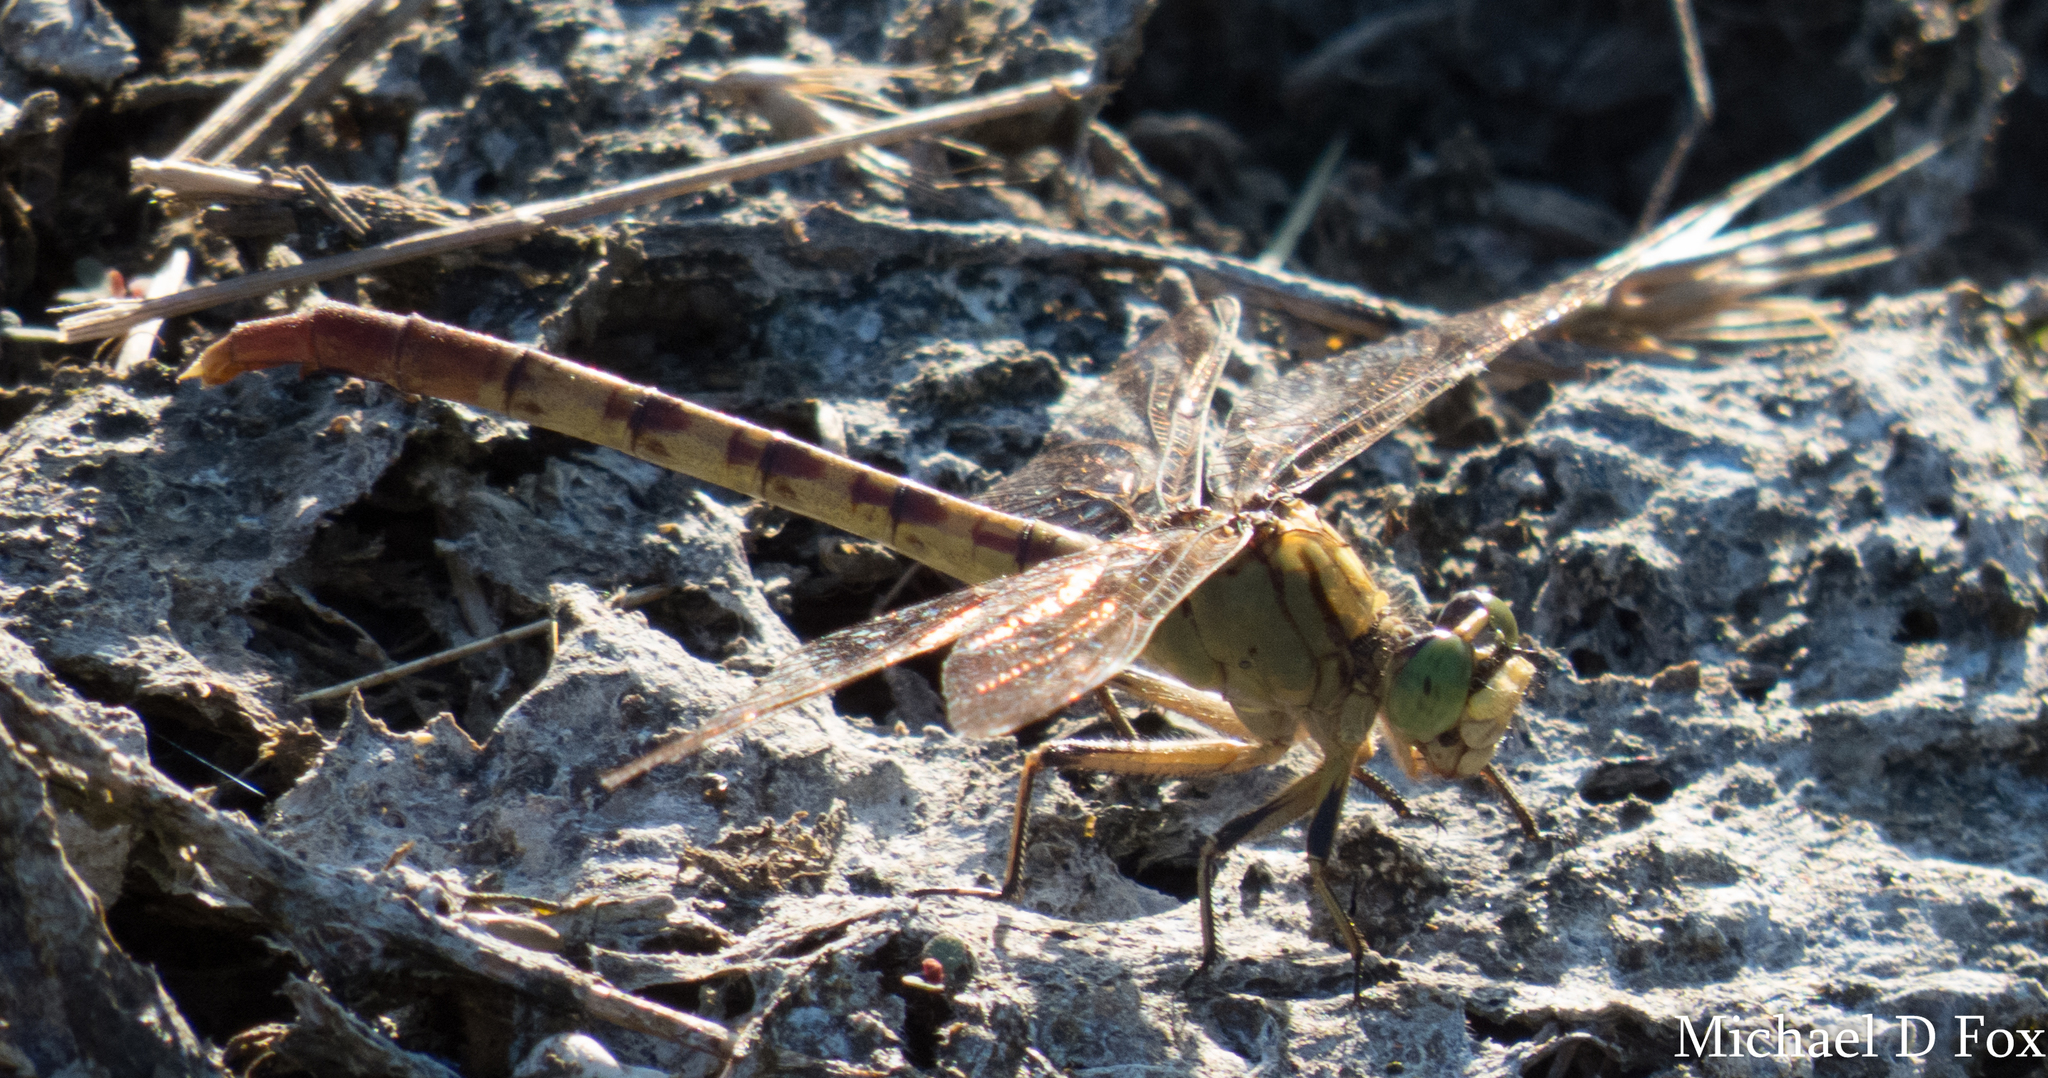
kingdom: Animalia
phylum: Arthropoda
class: Insecta
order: Odonata
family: Gomphidae
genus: Arigomphus
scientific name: Arigomphus submedianus
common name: Jade clubtail
